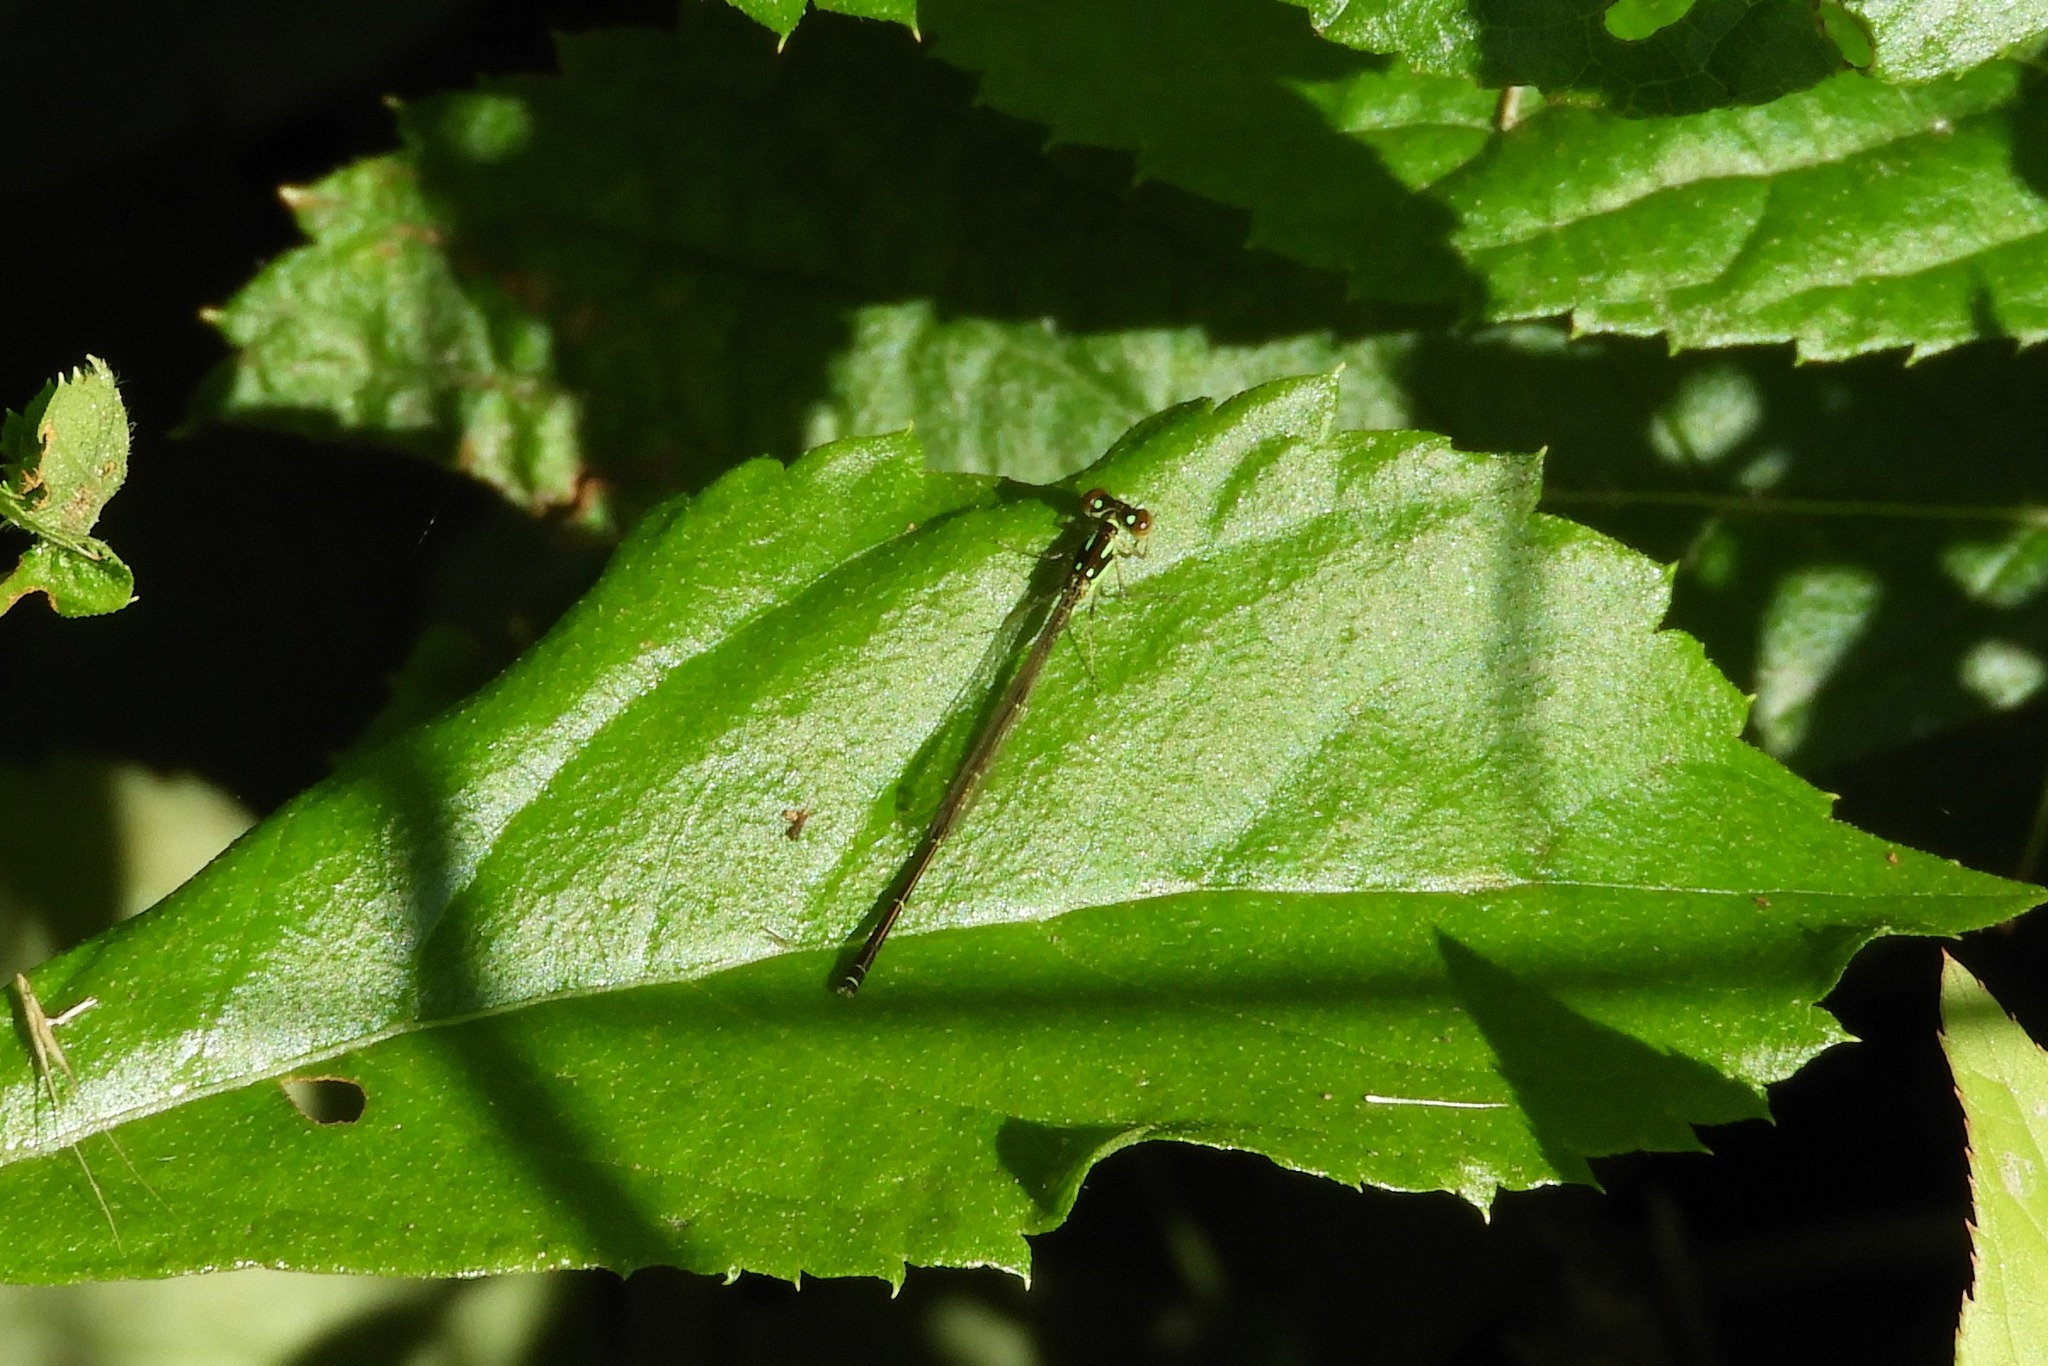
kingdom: Animalia
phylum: Arthropoda
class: Insecta
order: Odonata
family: Coenagrionidae
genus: Ischnura
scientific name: Ischnura posita
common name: Fragile forktail
